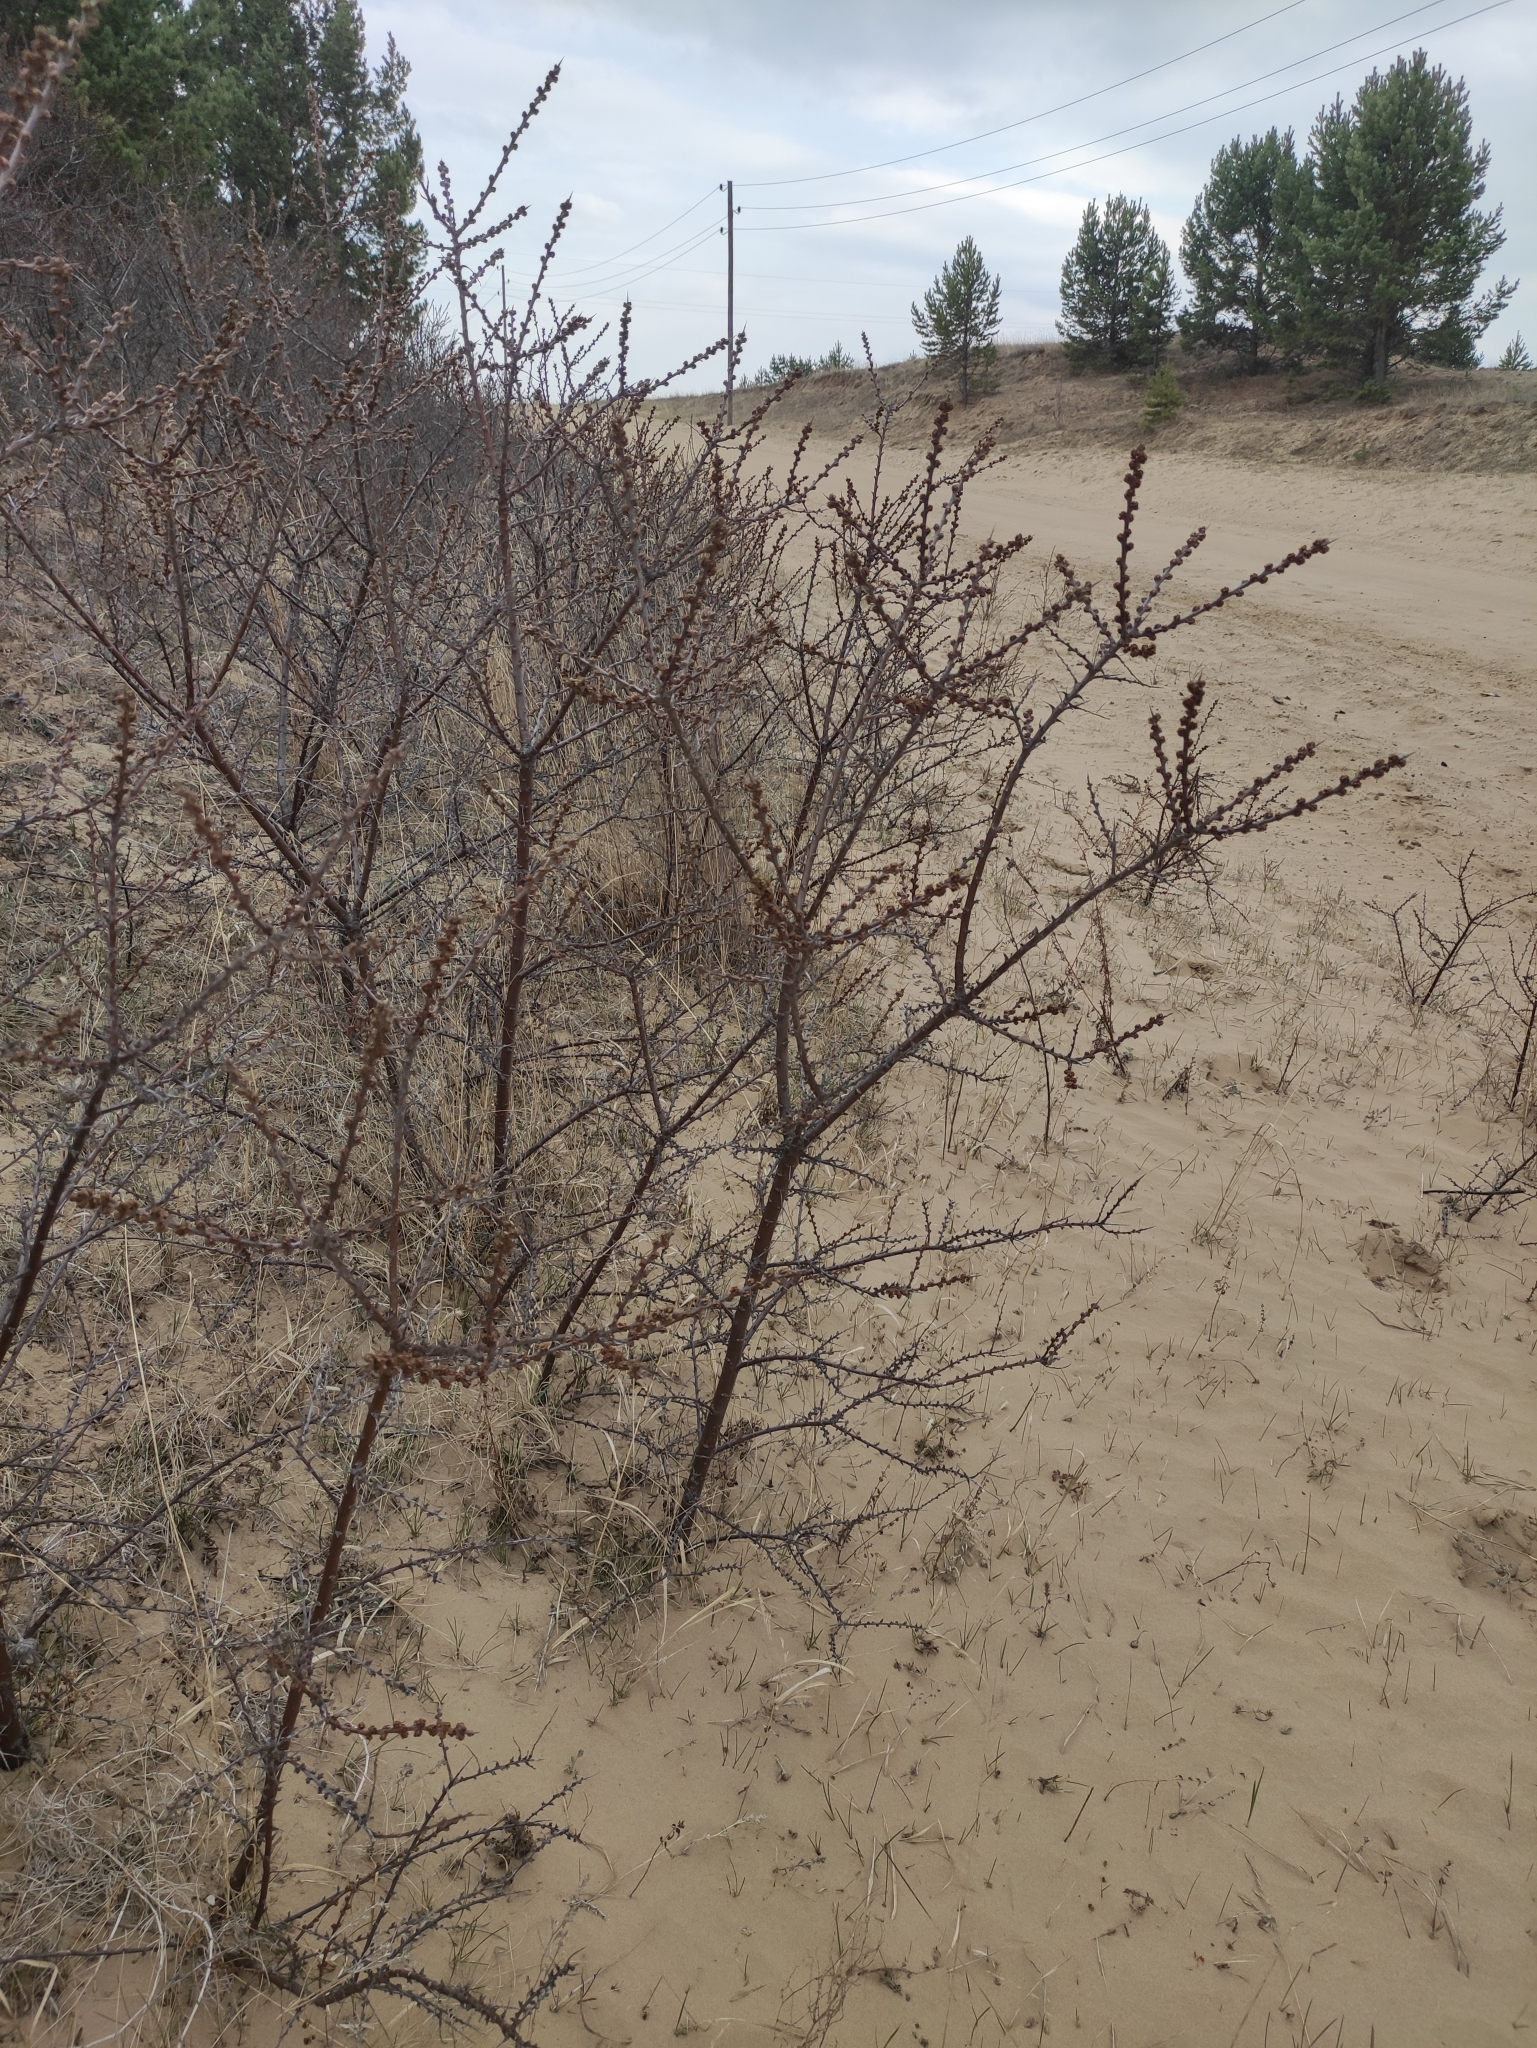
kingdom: Plantae
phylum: Tracheophyta
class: Magnoliopsida
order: Rosales
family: Elaeagnaceae
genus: Hippophae
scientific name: Hippophae rhamnoides
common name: Sea-buckthorn
